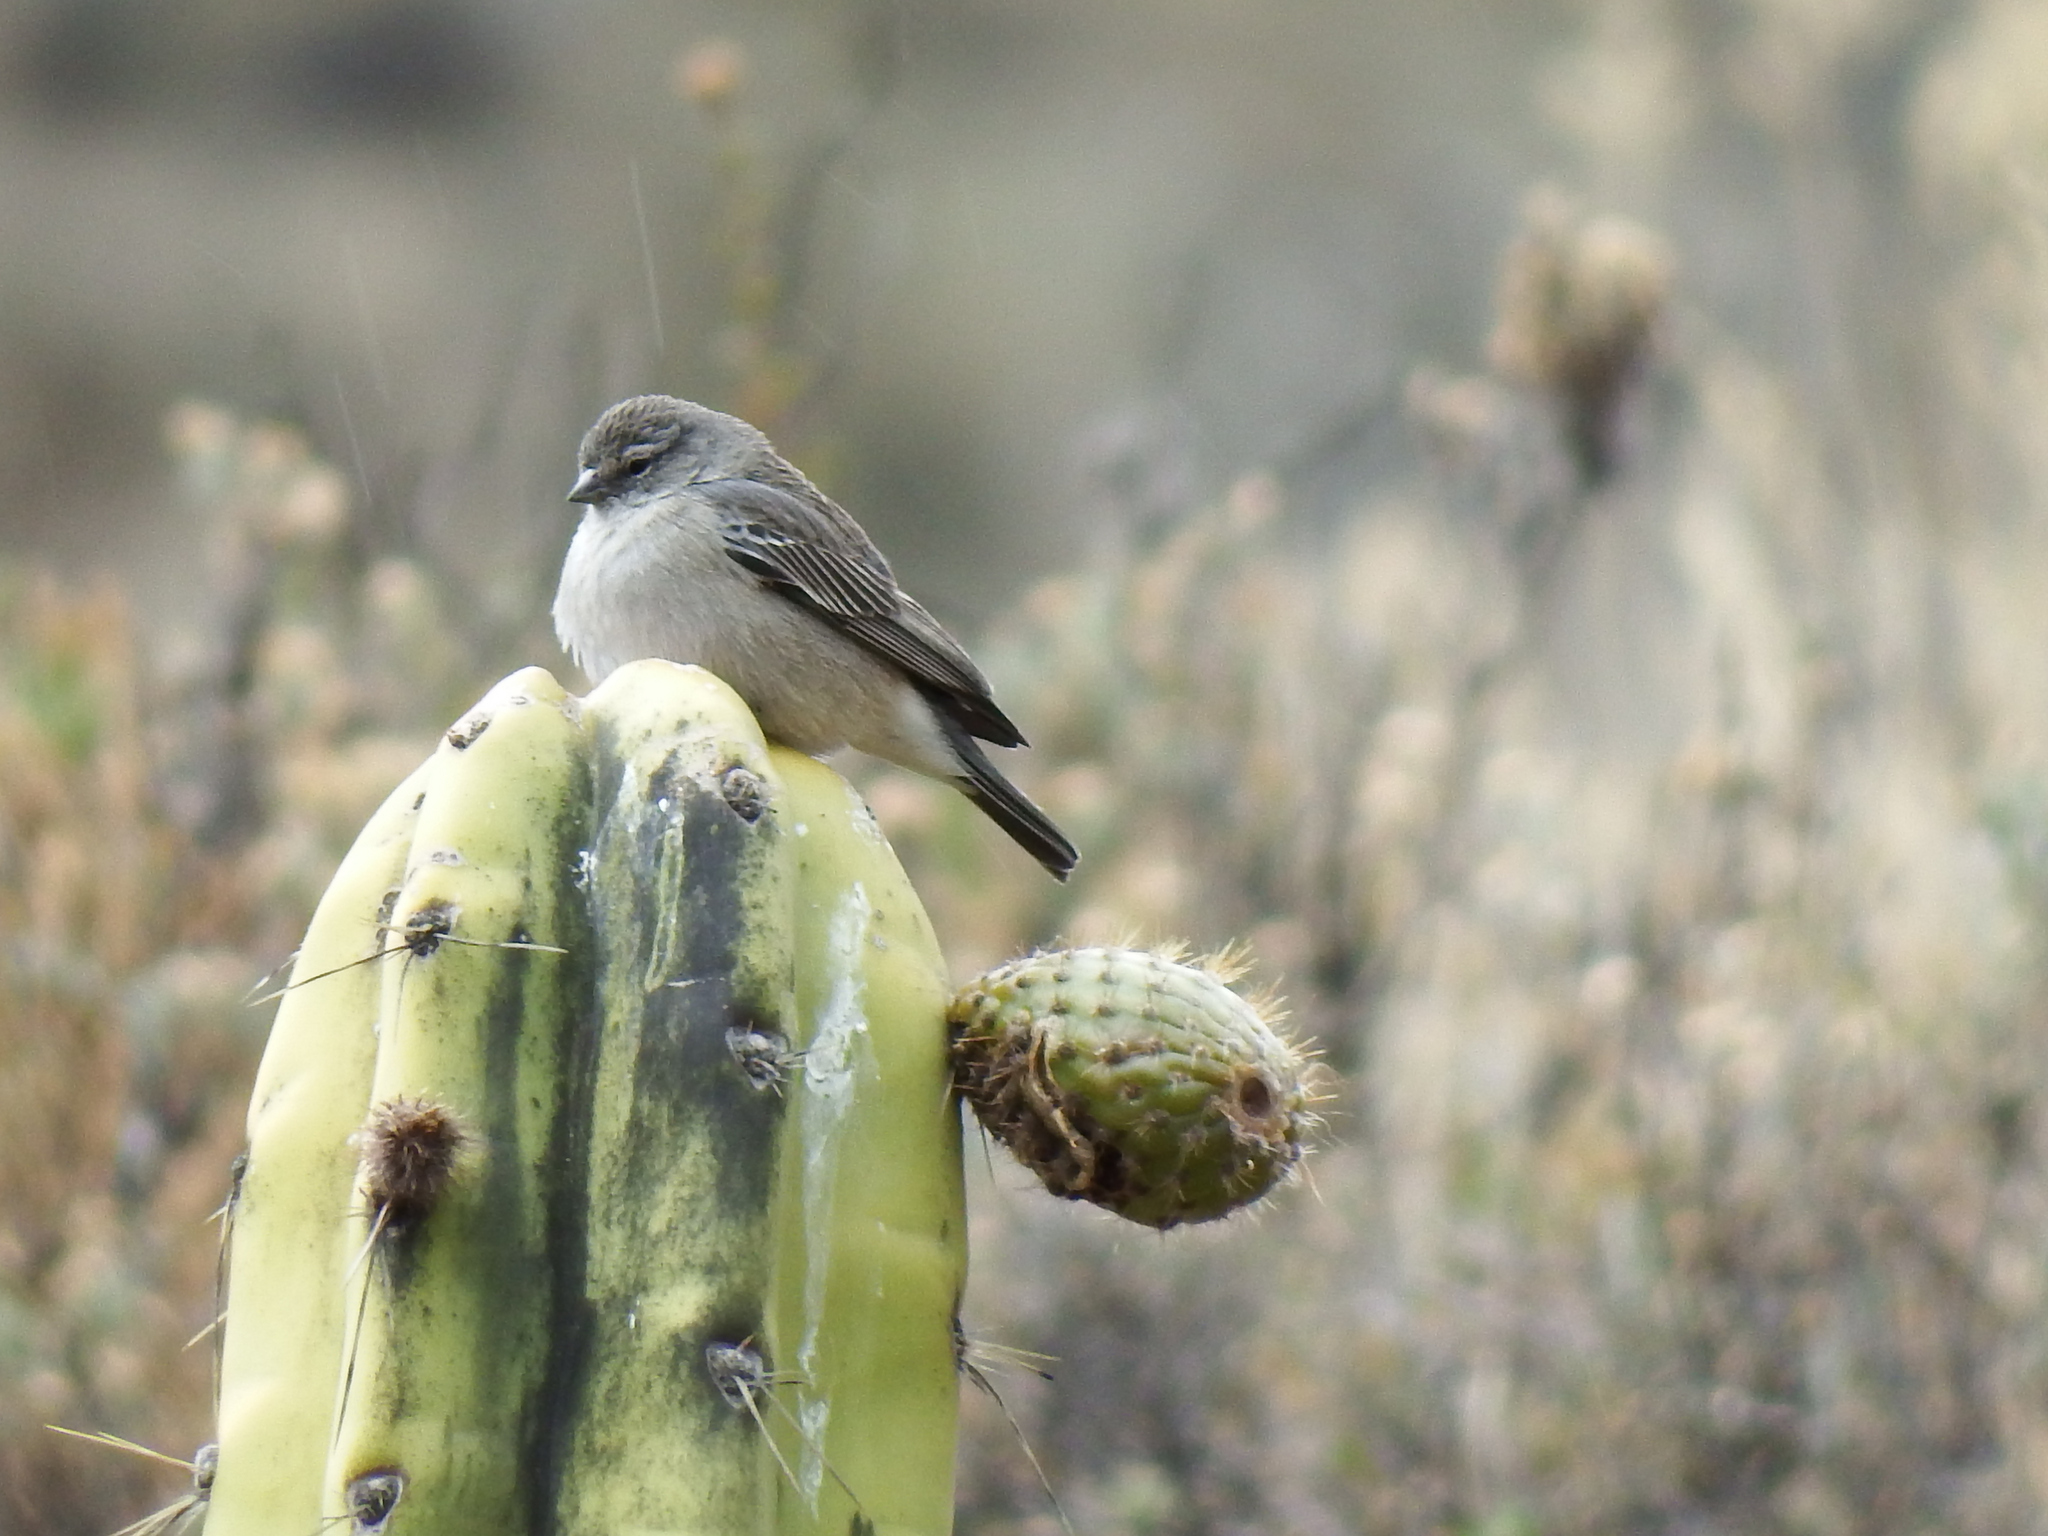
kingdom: Animalia
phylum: Chordata
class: Aves
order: Passeriformes
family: Thraupidae
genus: Geospizopsis
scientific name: Geospizopsis plebejus
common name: Ash-breasted sierra-finch
